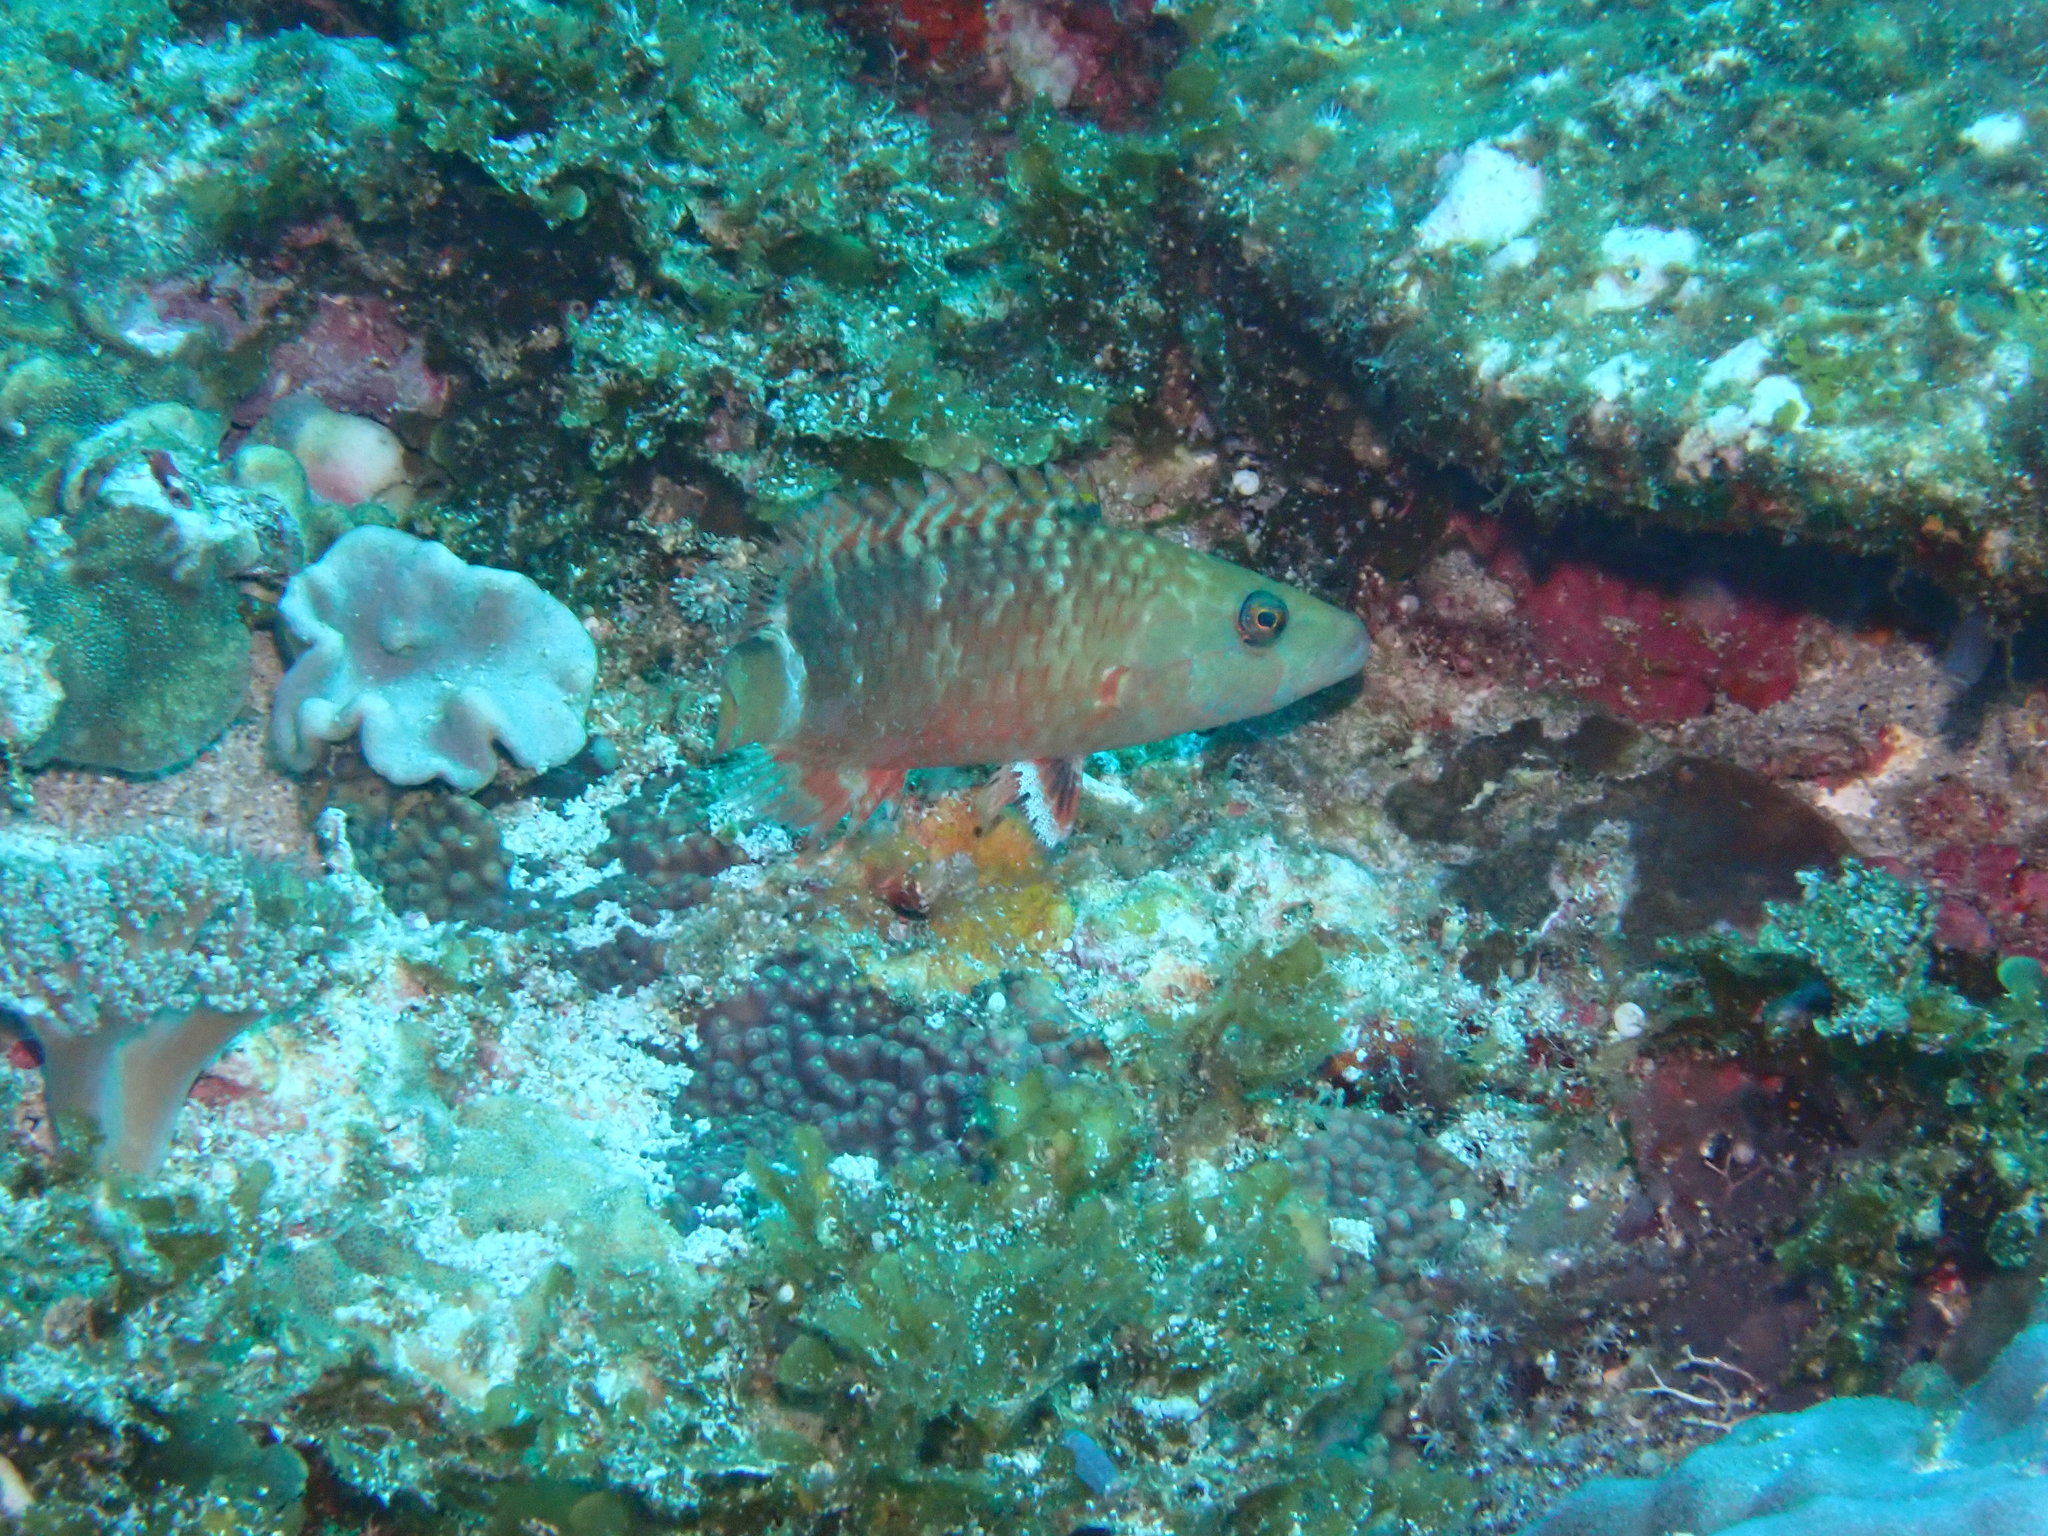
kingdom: Animalia
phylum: Chordata
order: Perciformes
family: Labridae
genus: Oxycheilinus
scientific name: Oxycheilinus unifasciatus
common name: Ringtail maori wrasse
